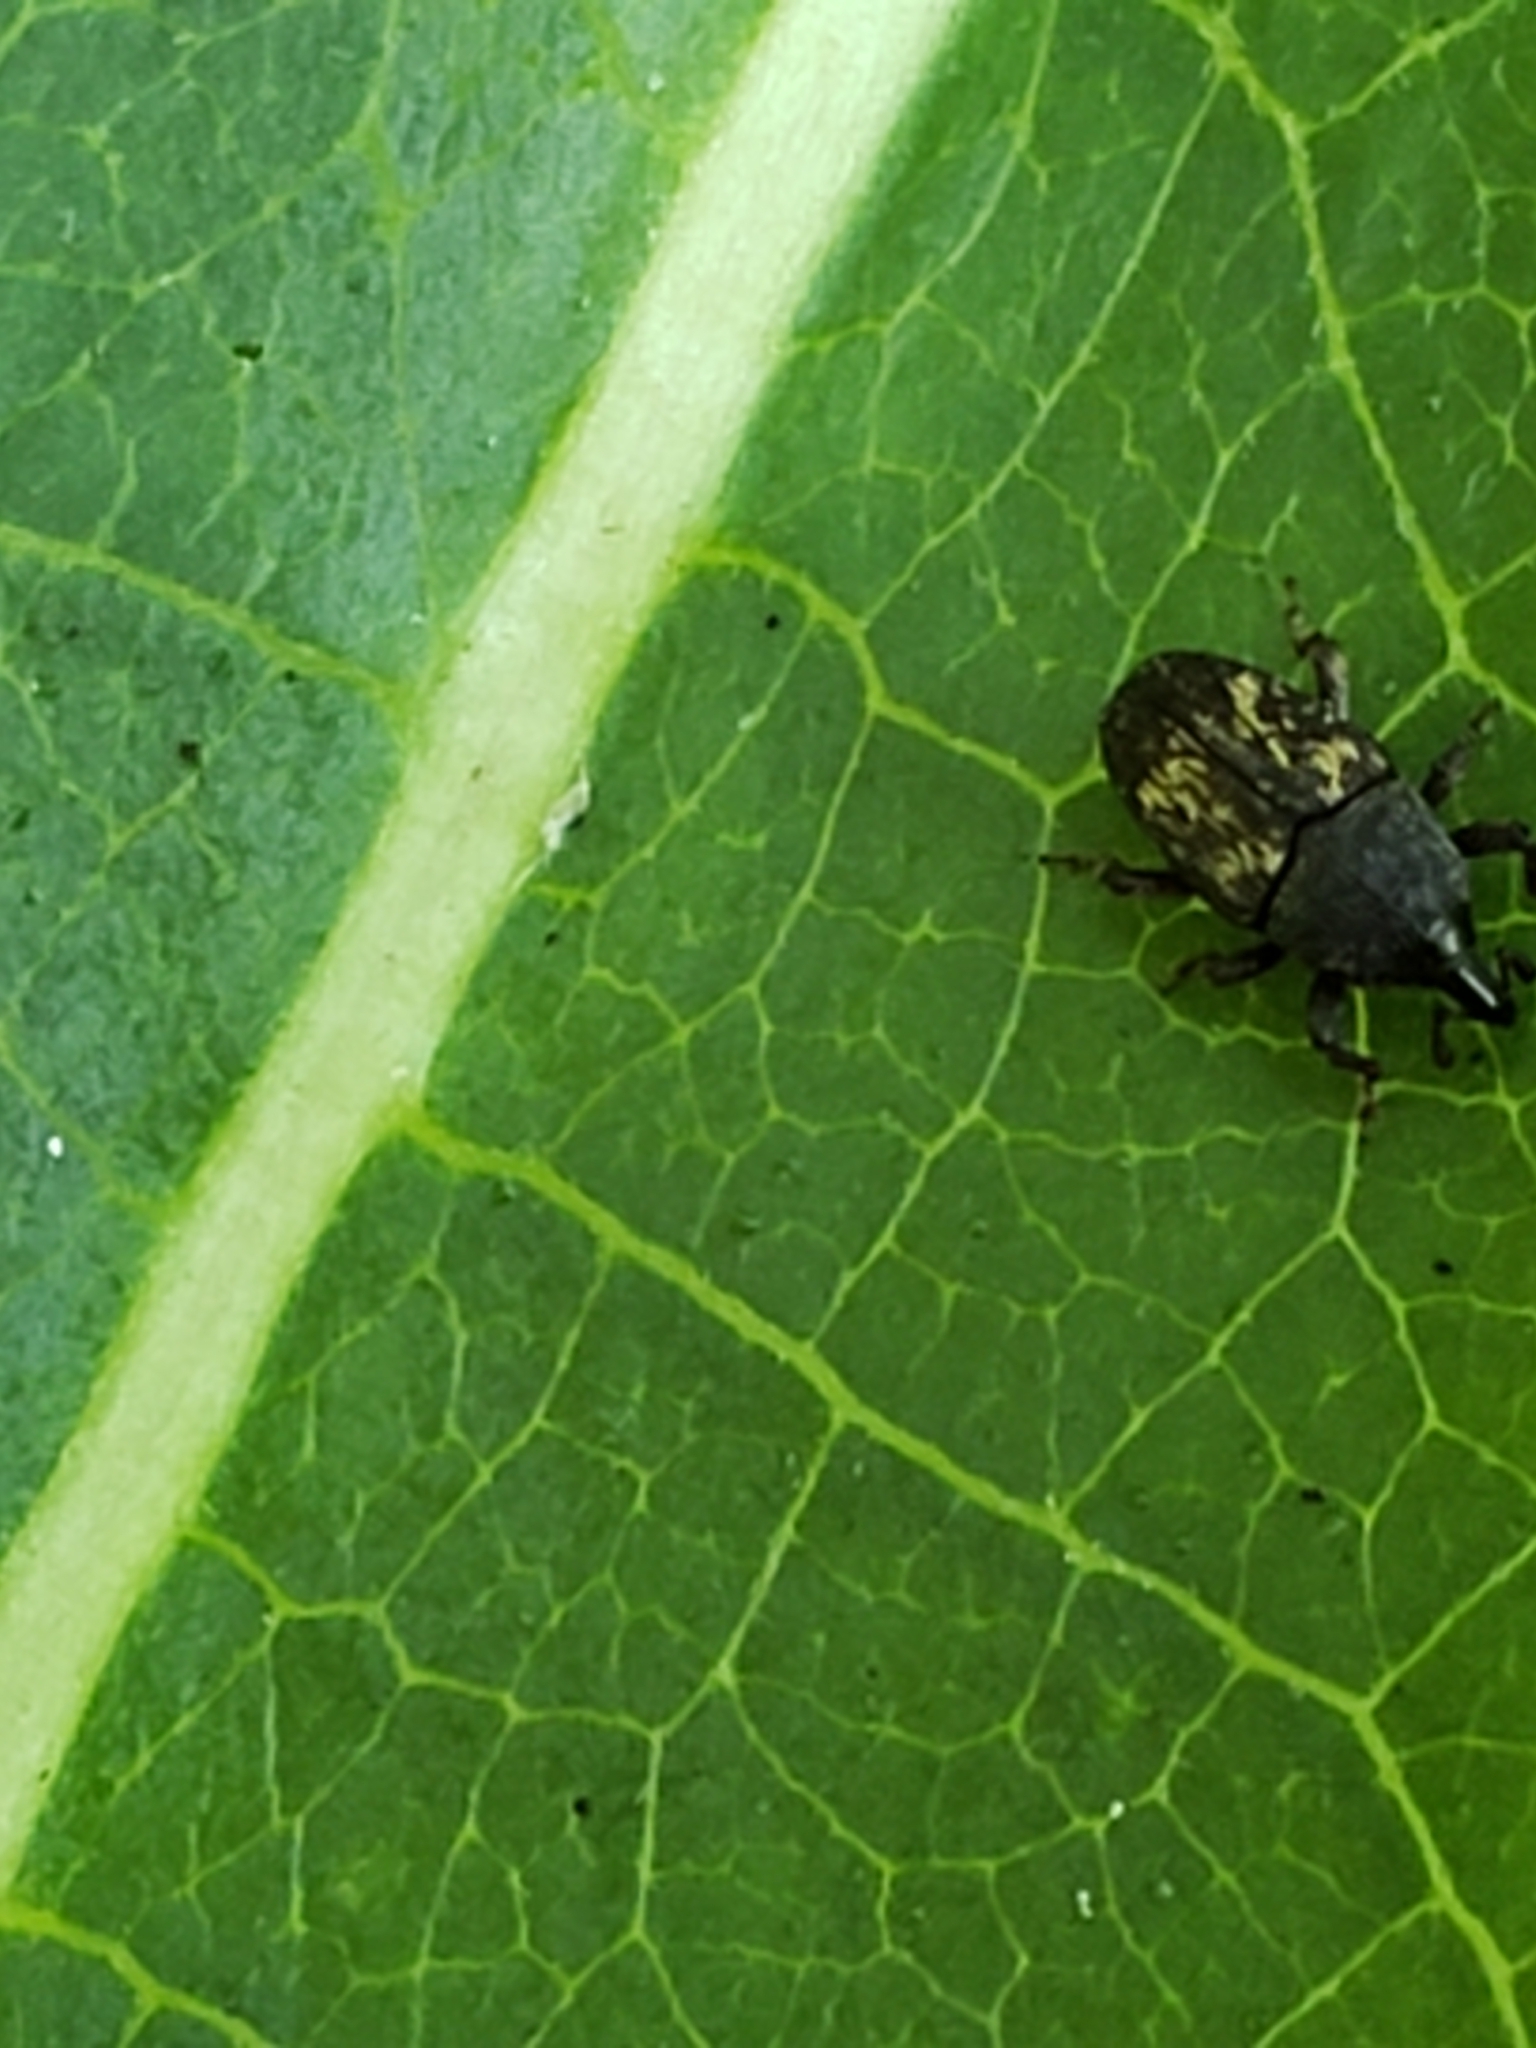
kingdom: Animalia
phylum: Arthropoda
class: Insecta
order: Coleoptera
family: Curculionidae
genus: Glyptobaris
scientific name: Glyptobaris lecontei
